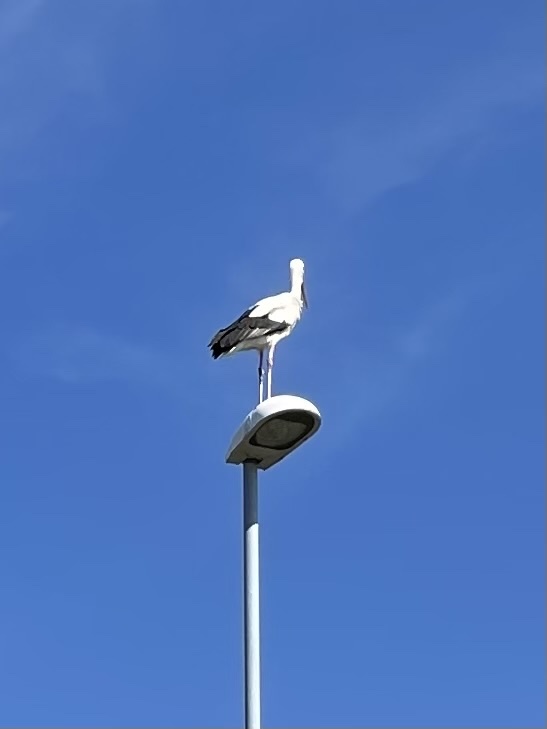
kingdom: Animalia
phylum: Chordata
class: Aves
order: Ciconiiformes
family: Ciconiidae
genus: Ciconia
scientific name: Ciconia ciconia
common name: White stork
